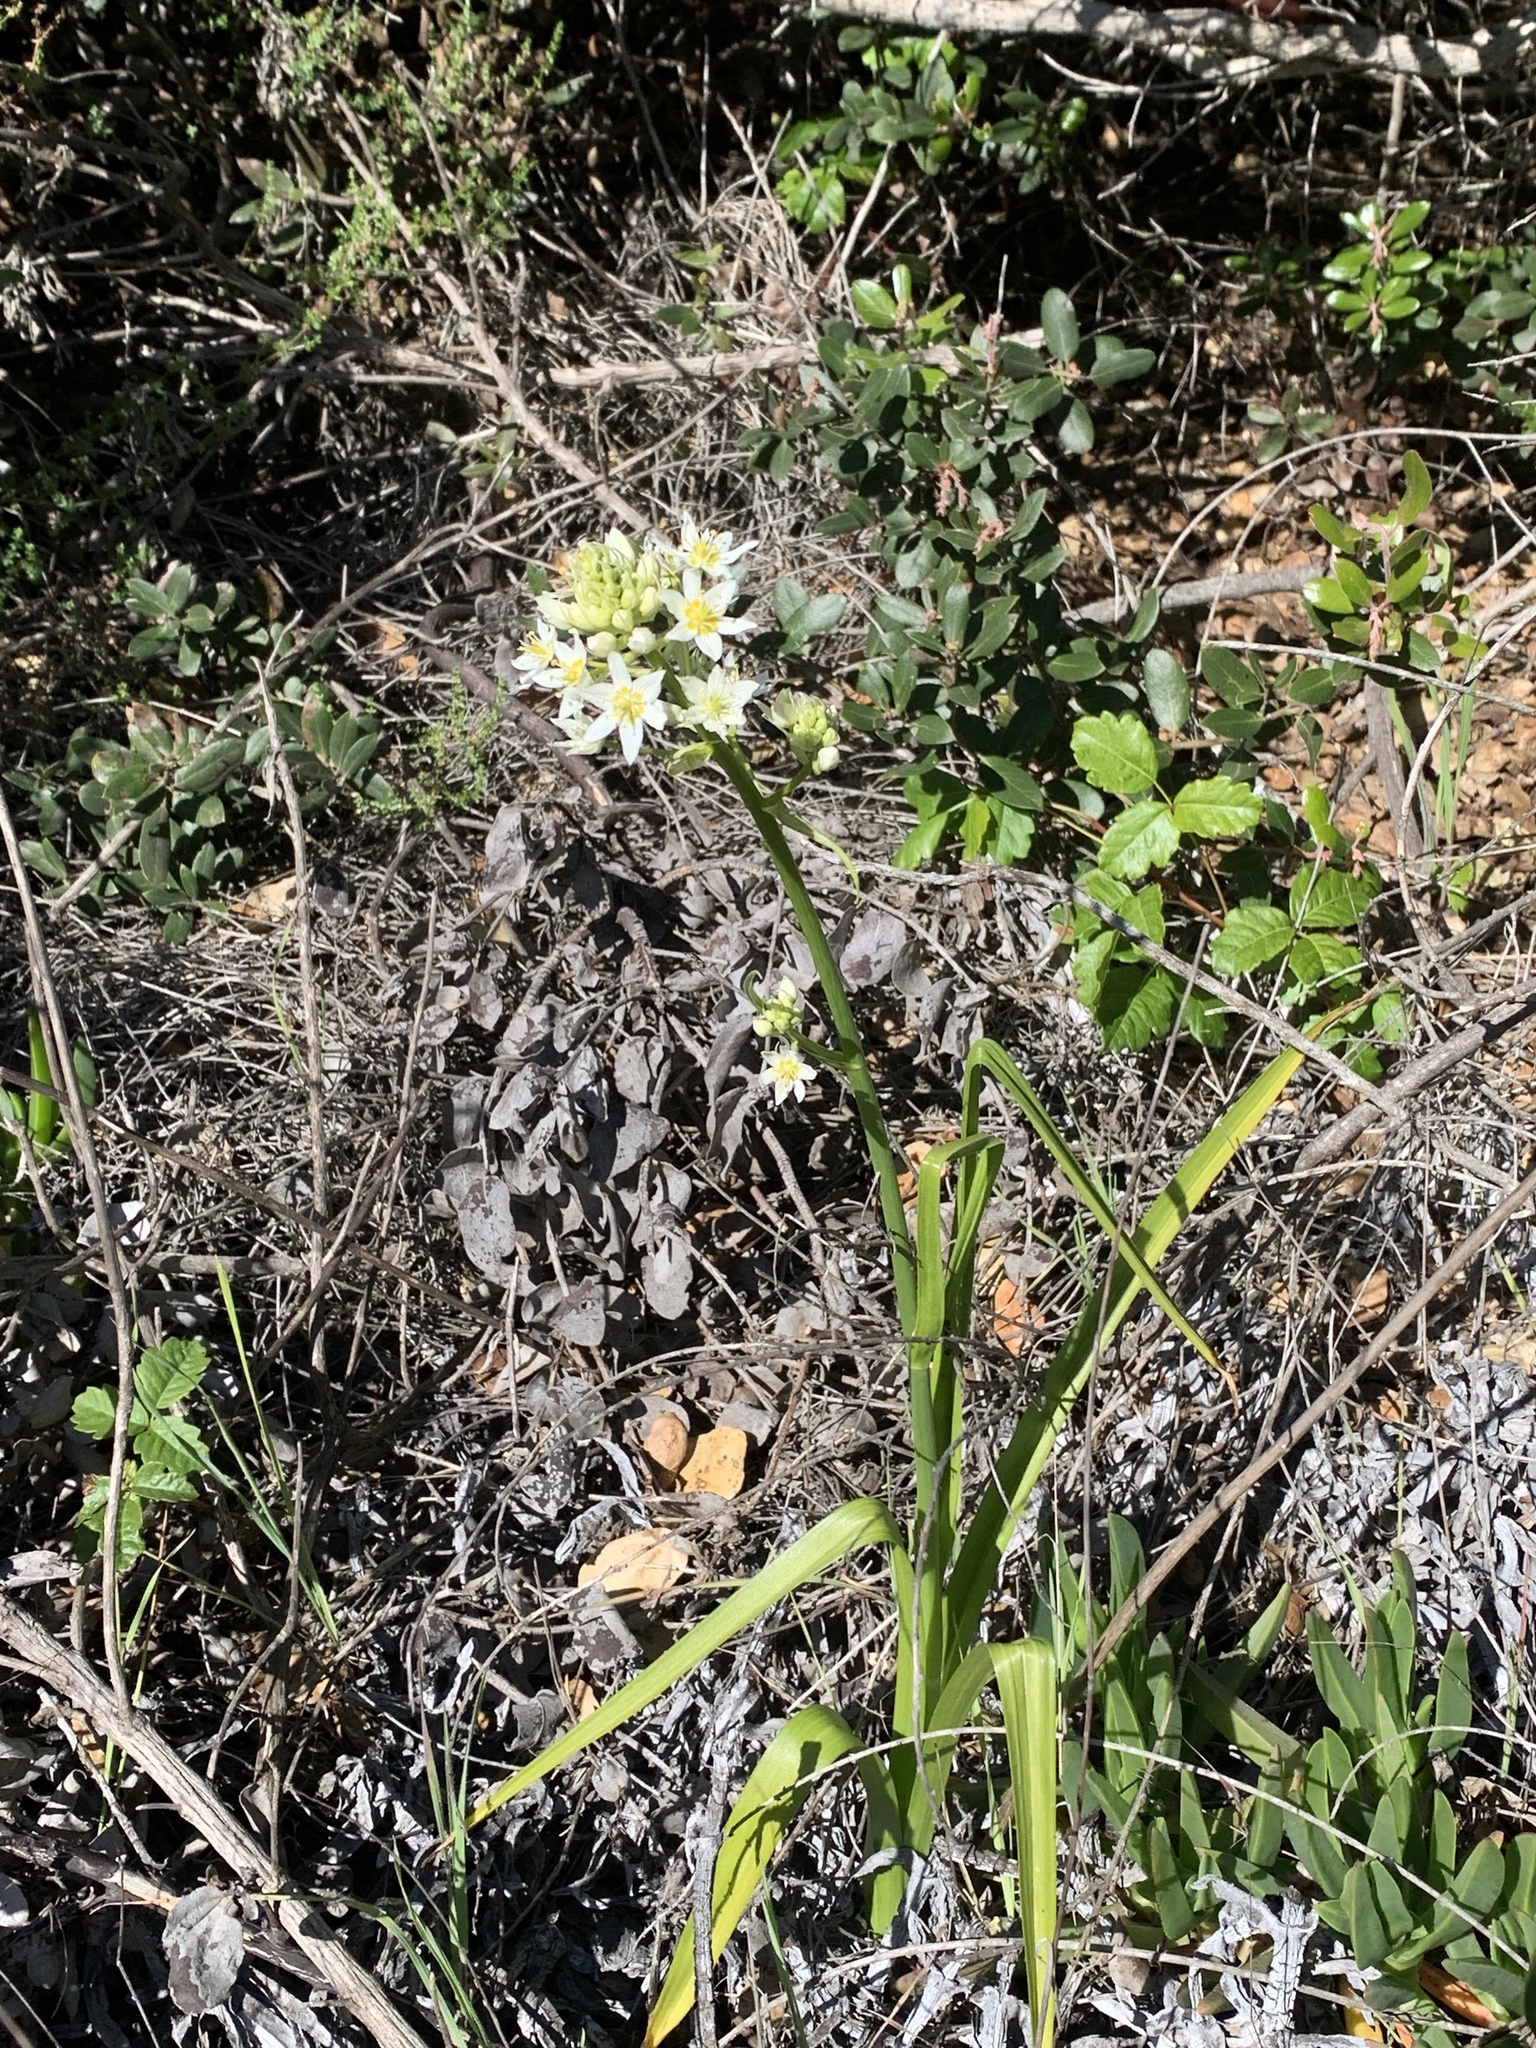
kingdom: Plantae
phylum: Tracheophyta
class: Liliopsida
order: Liliales
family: Melanthiaceae
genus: Toxicoscordion
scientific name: Toxicoscordion fremontii
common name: Fremont's death camas
